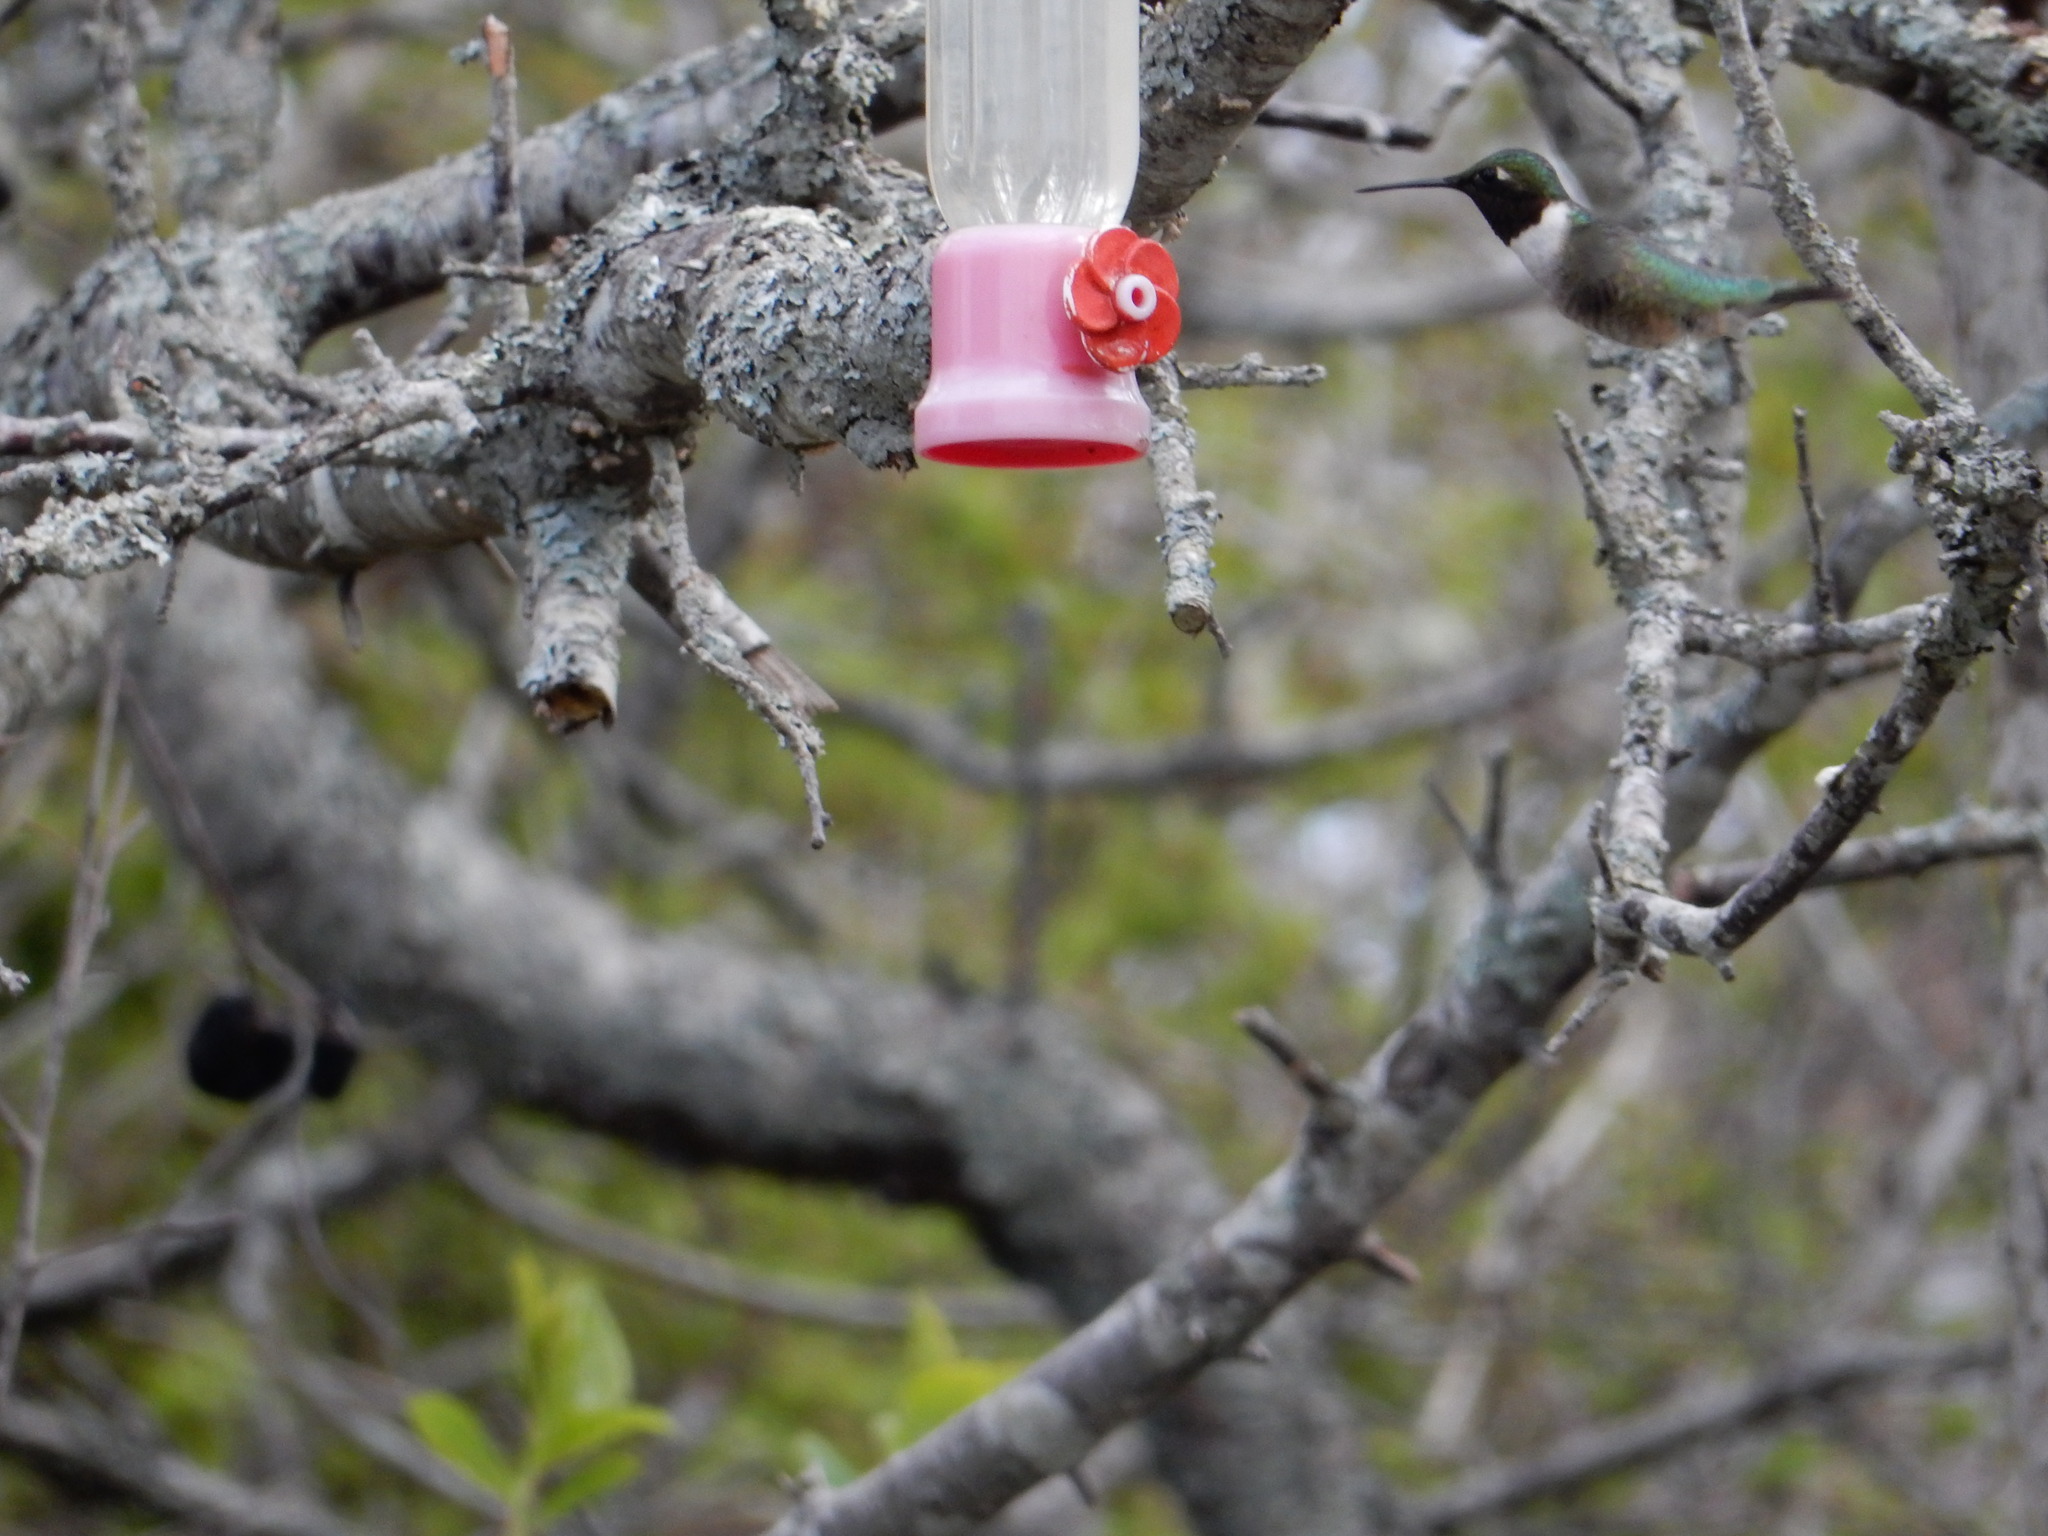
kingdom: Animalia
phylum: Chordata
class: Aves
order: Apodiformes
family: Trochilidae
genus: Archilochus
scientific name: Archilochus colubris
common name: Ruby-throated hummingbird
